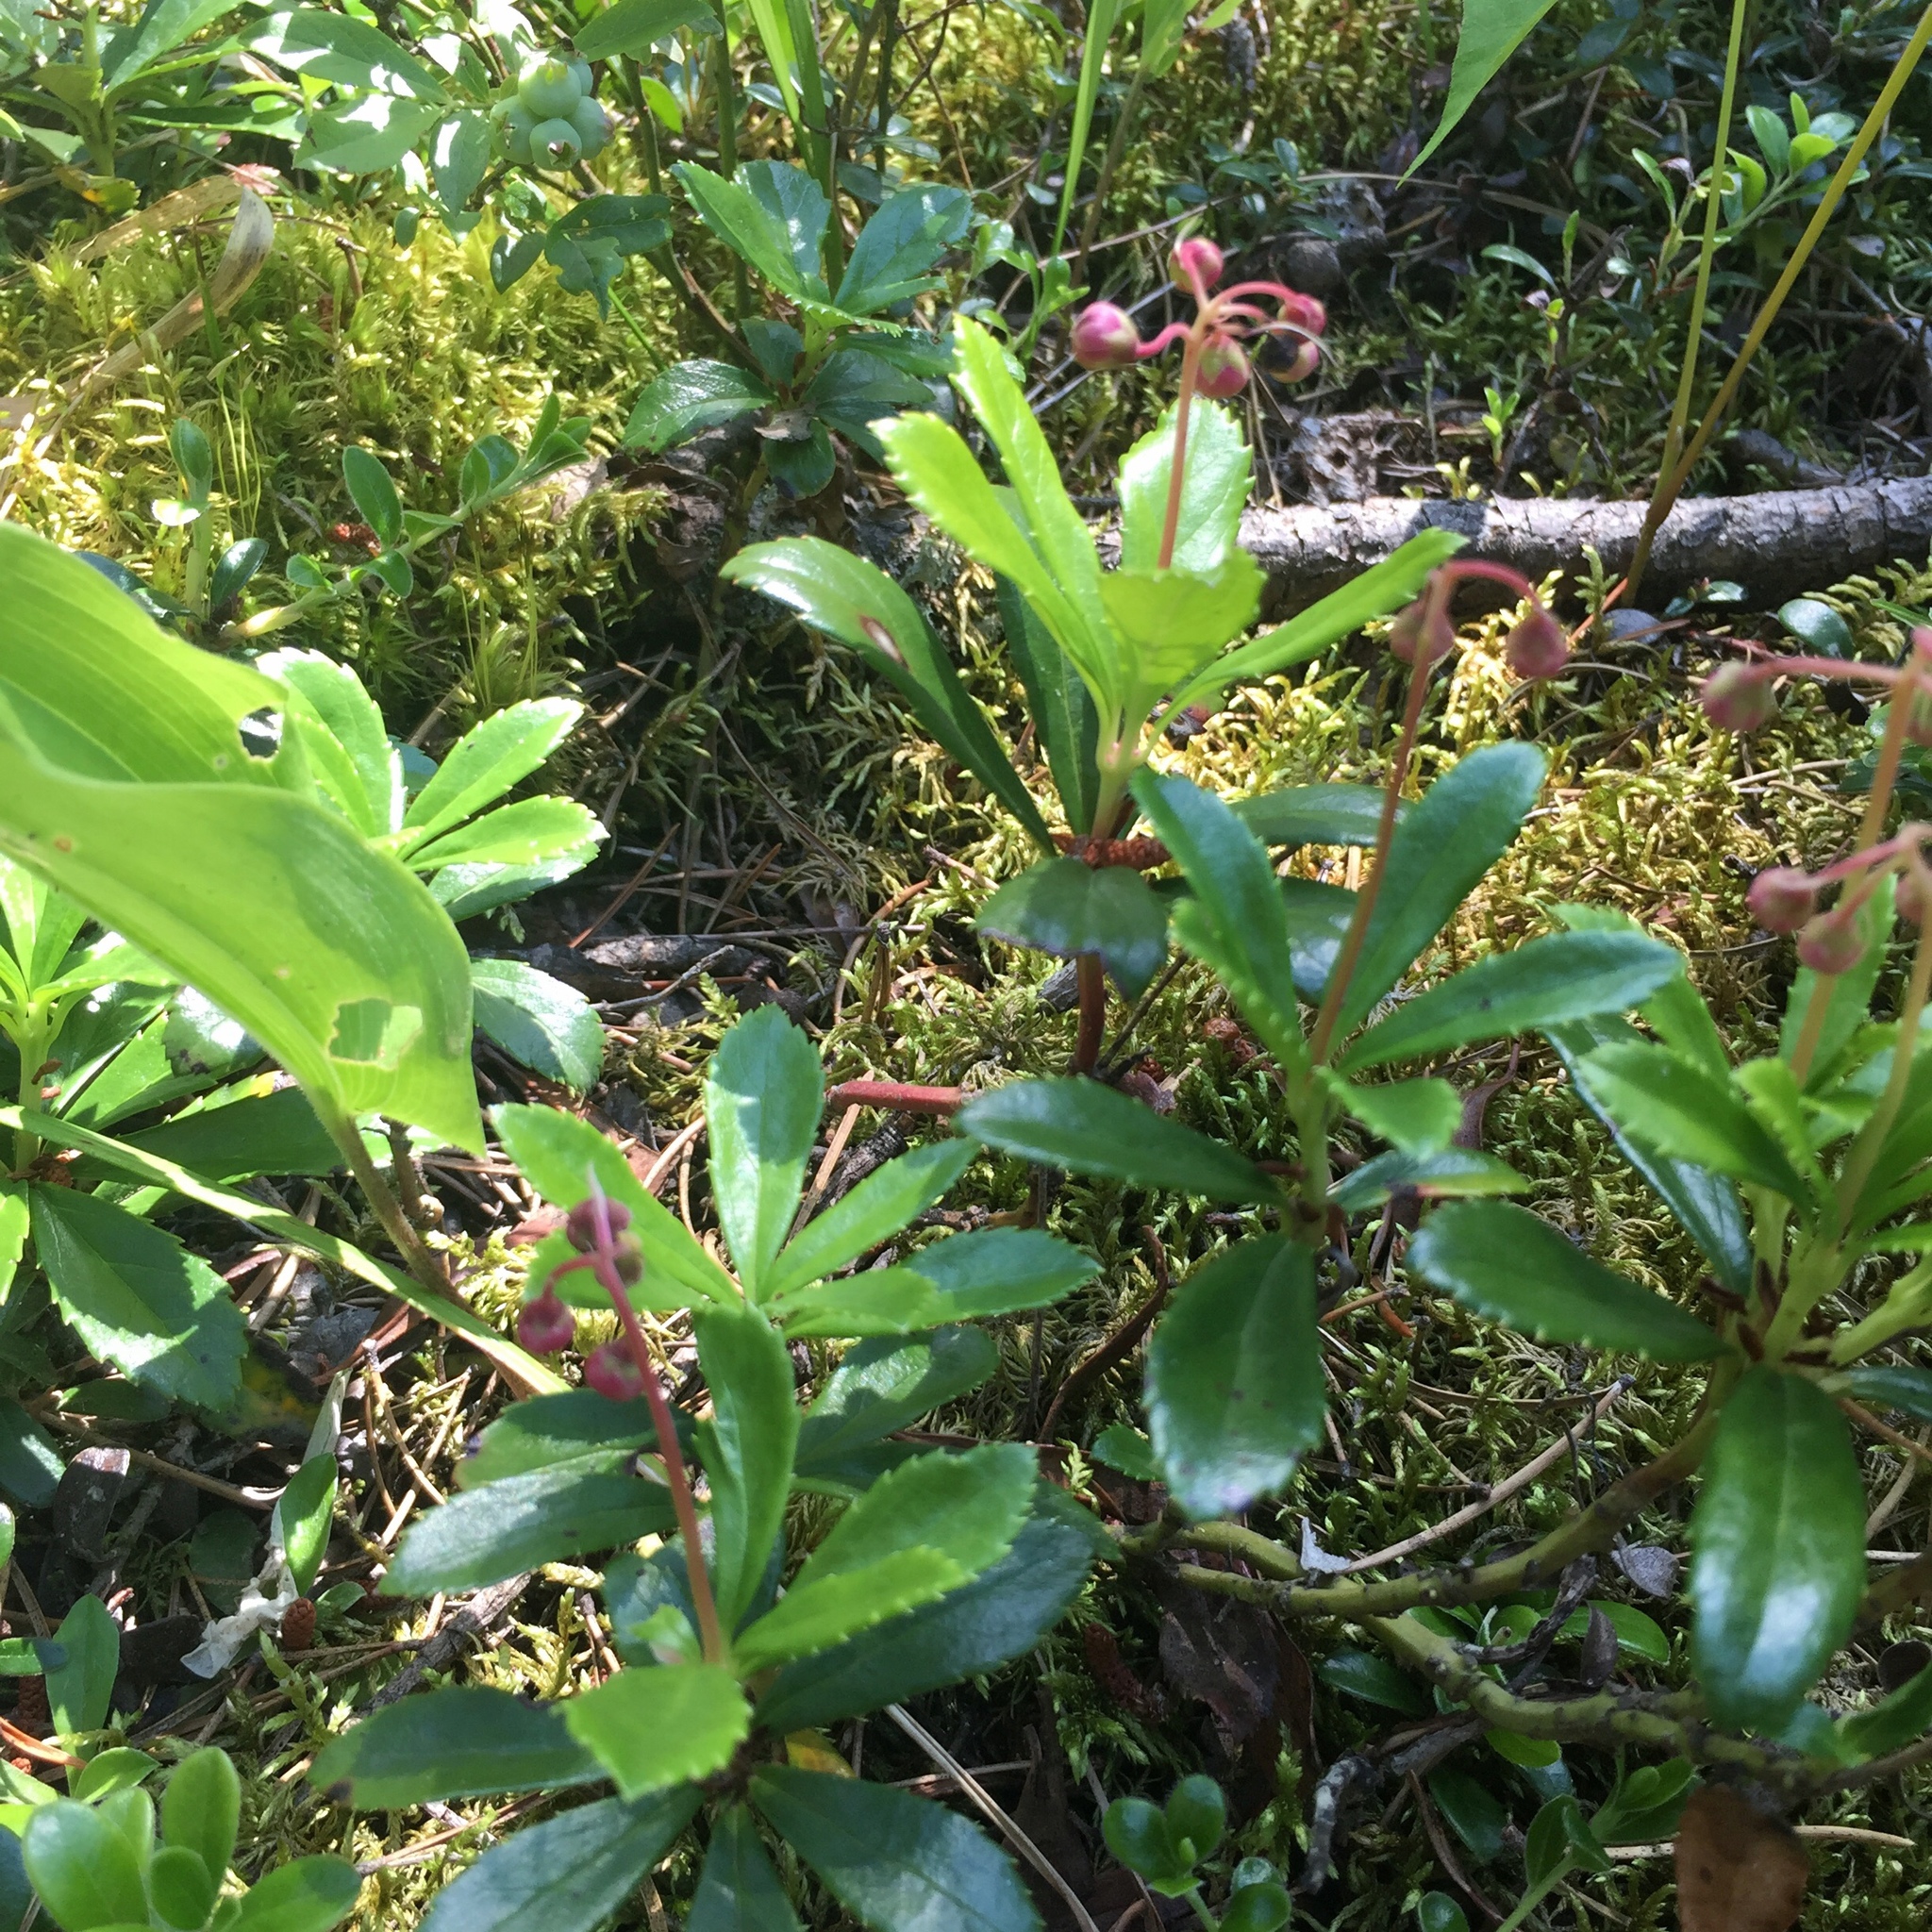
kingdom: Plantae
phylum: Tracheophyta
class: Magnoliopsida
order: Ericales
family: Ericaceae
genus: Chimaphila
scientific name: Chimaphila umbellata
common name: Pipsissewa
